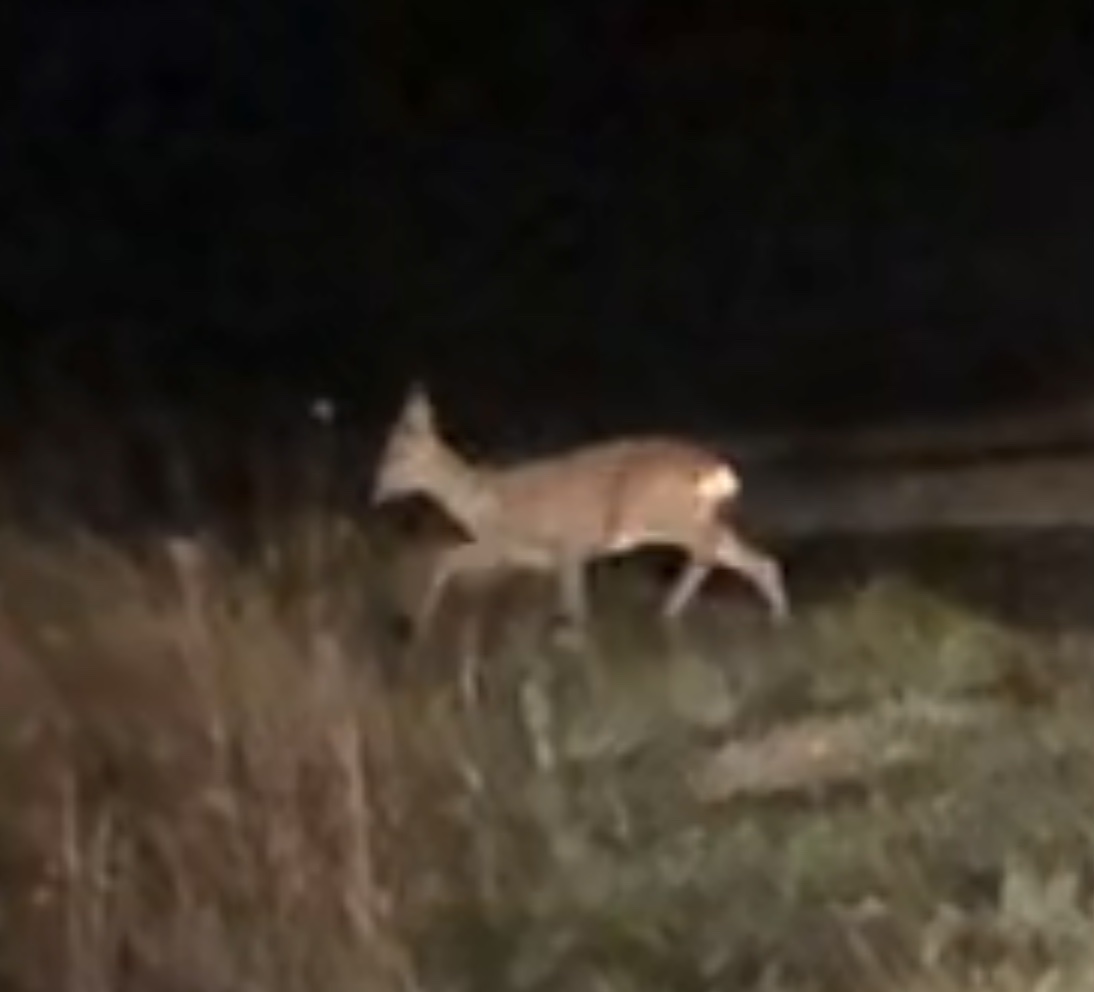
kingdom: Animalia
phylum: Chordata
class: Mammalia
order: Artiodactyla
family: Cervidae
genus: Capreolus
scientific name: Capreolus capreolus
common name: Western roe deer
